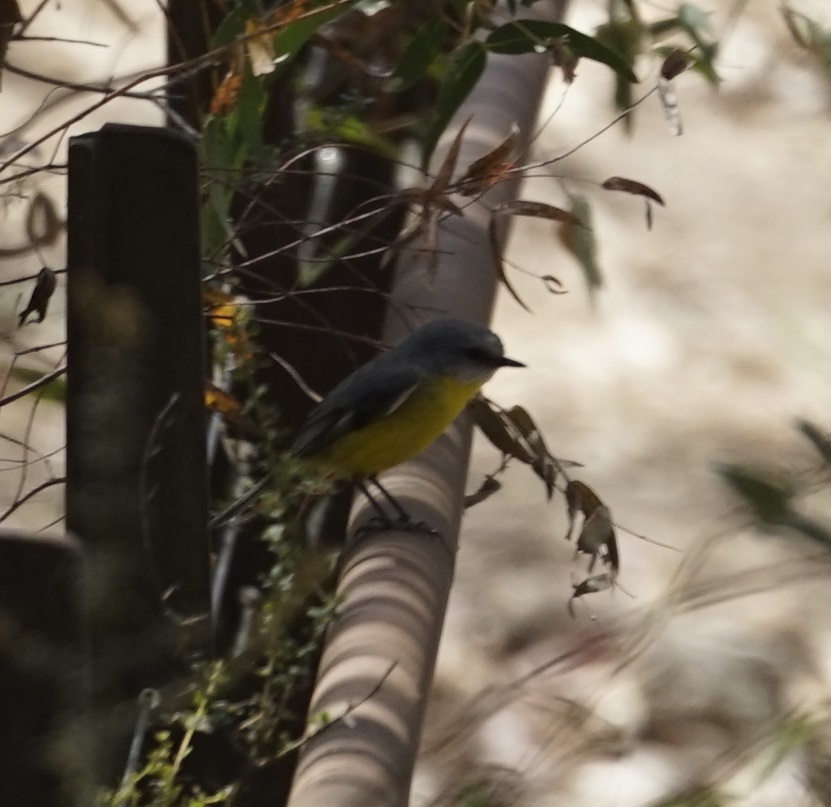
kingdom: Animalia
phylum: Chordata
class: Aves
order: Passeriformes
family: Petroicidae
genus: Eopsaltria
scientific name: Eopsaltria australis
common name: Eastern yellow robin
